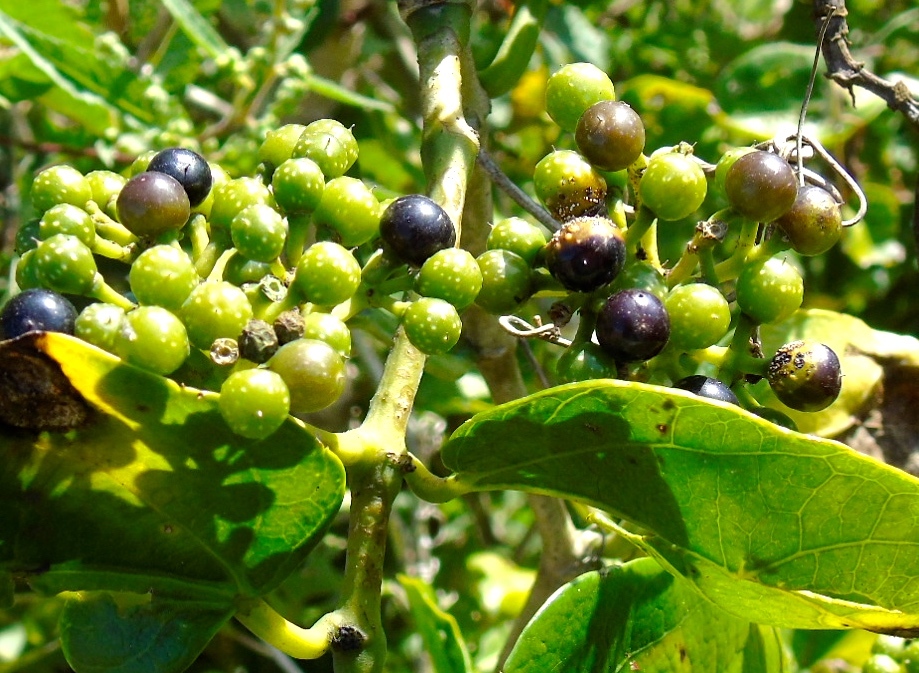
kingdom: Plantae
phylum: Tracheophyta
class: Magnoliopsida
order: Vitales
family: Vitaceae
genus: Cissus
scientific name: Cissus verticillata
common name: Princess vine
